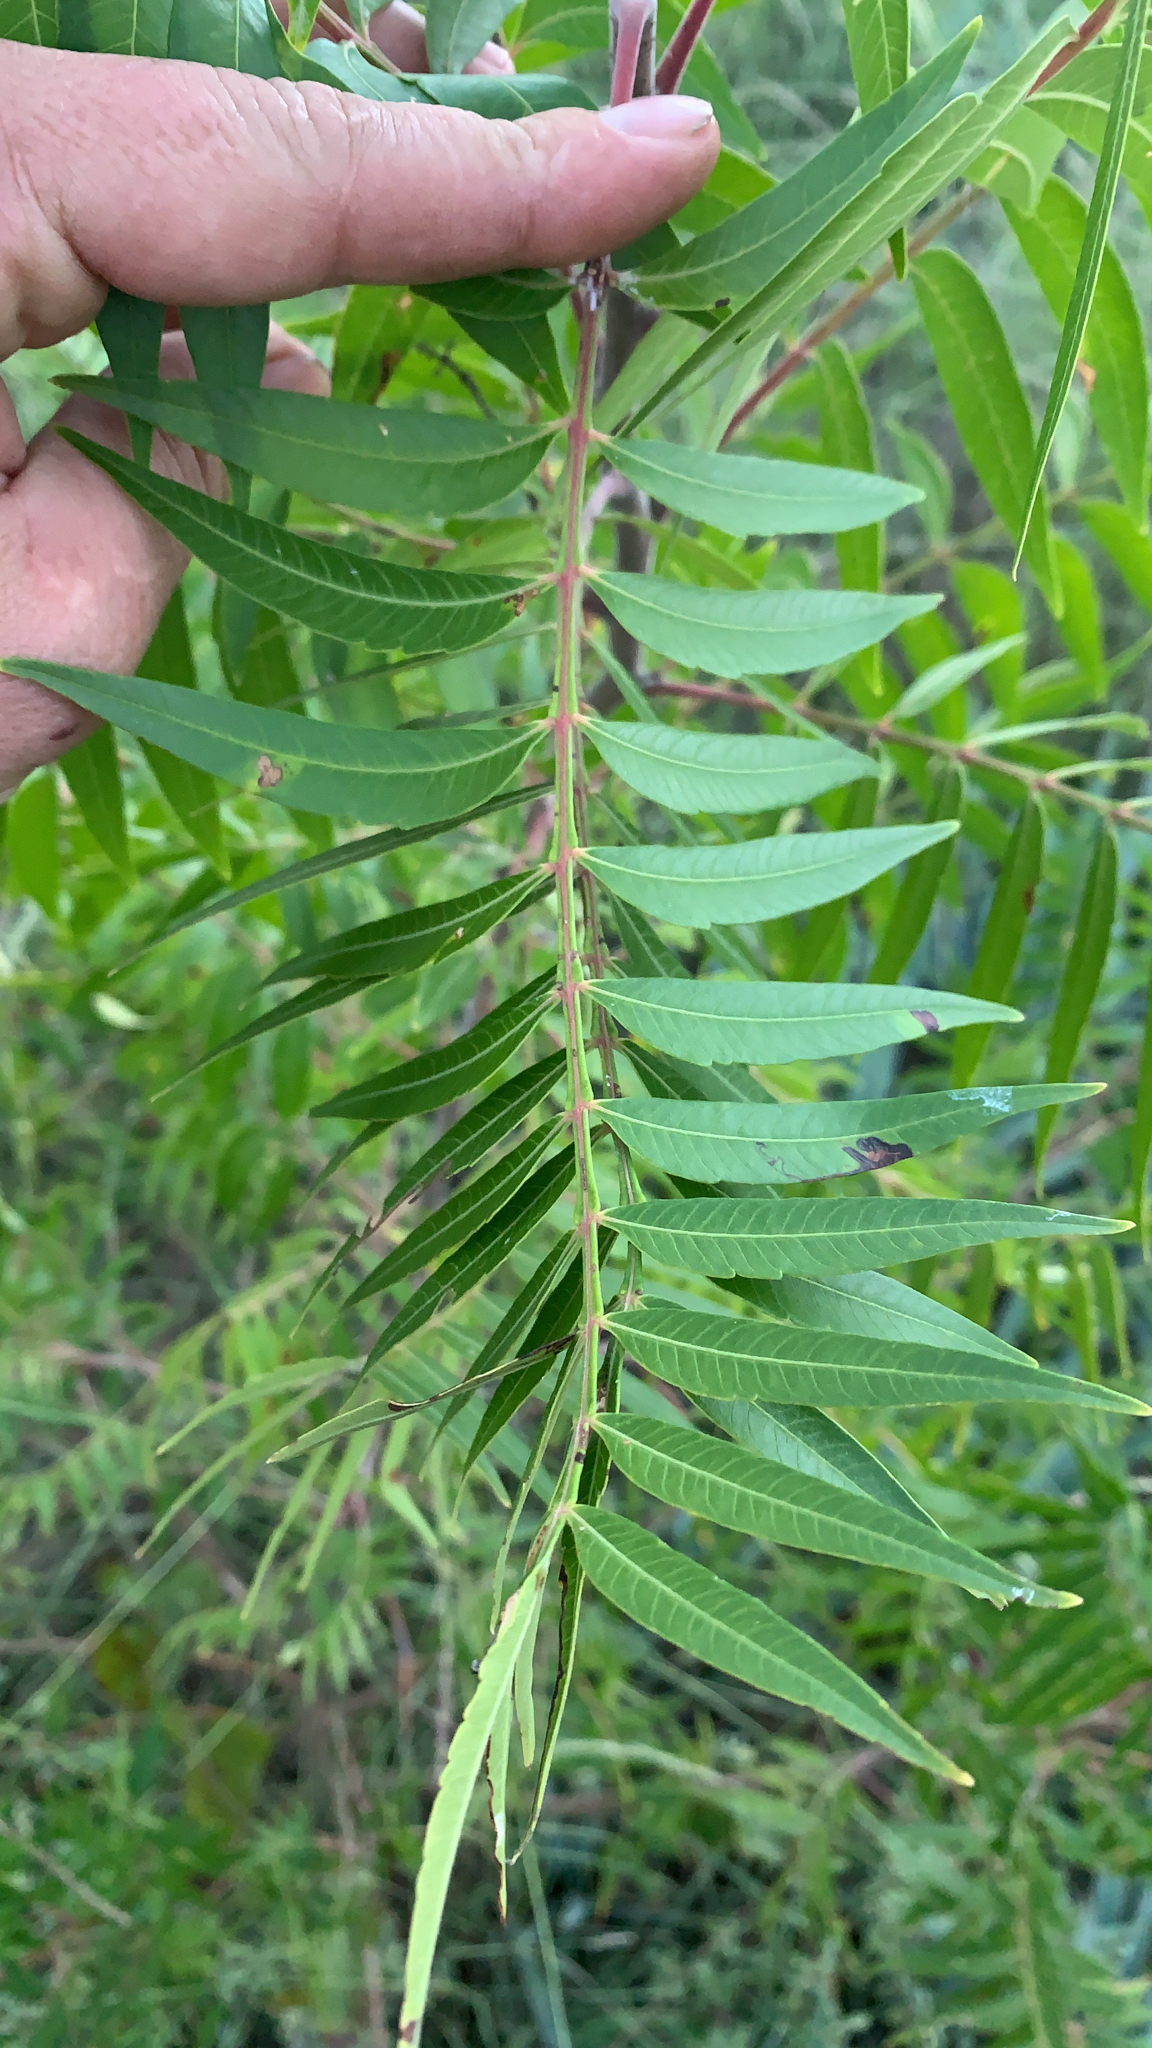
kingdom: Plantae
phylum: Tracheophyta
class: Magnoliopsida
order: Sapindales
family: Anacardiaceae
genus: Rhus
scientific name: Rhus lanceolata
